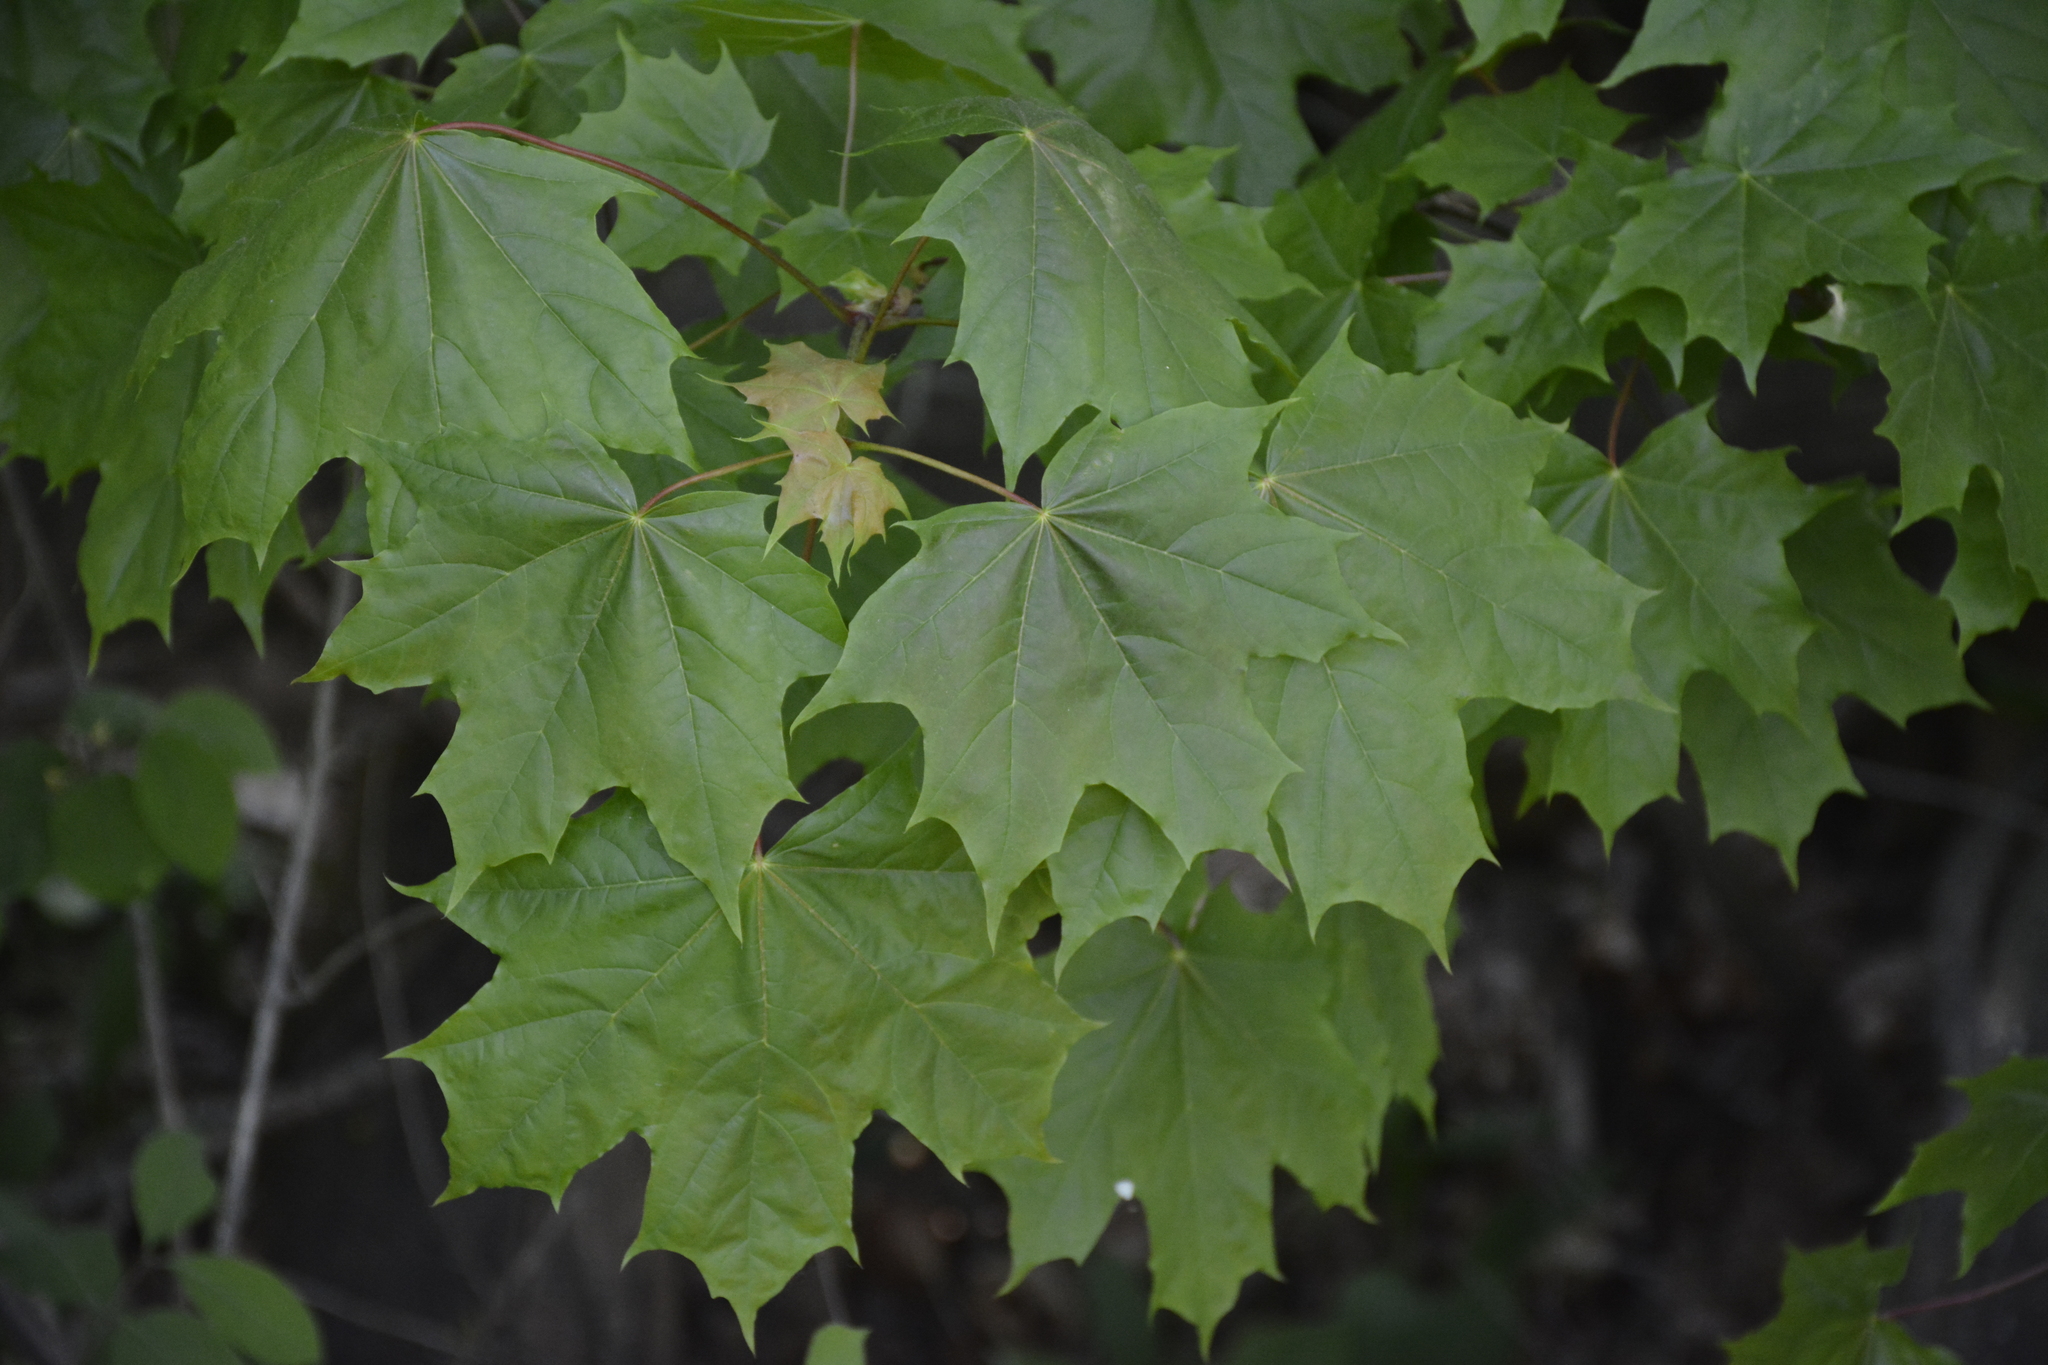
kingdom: Plantae
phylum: Tracheophyta
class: Magnoliopsida
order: Sapindales
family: Sapindaceae
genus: Acer
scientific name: Acer platanoides
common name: Norway maple
